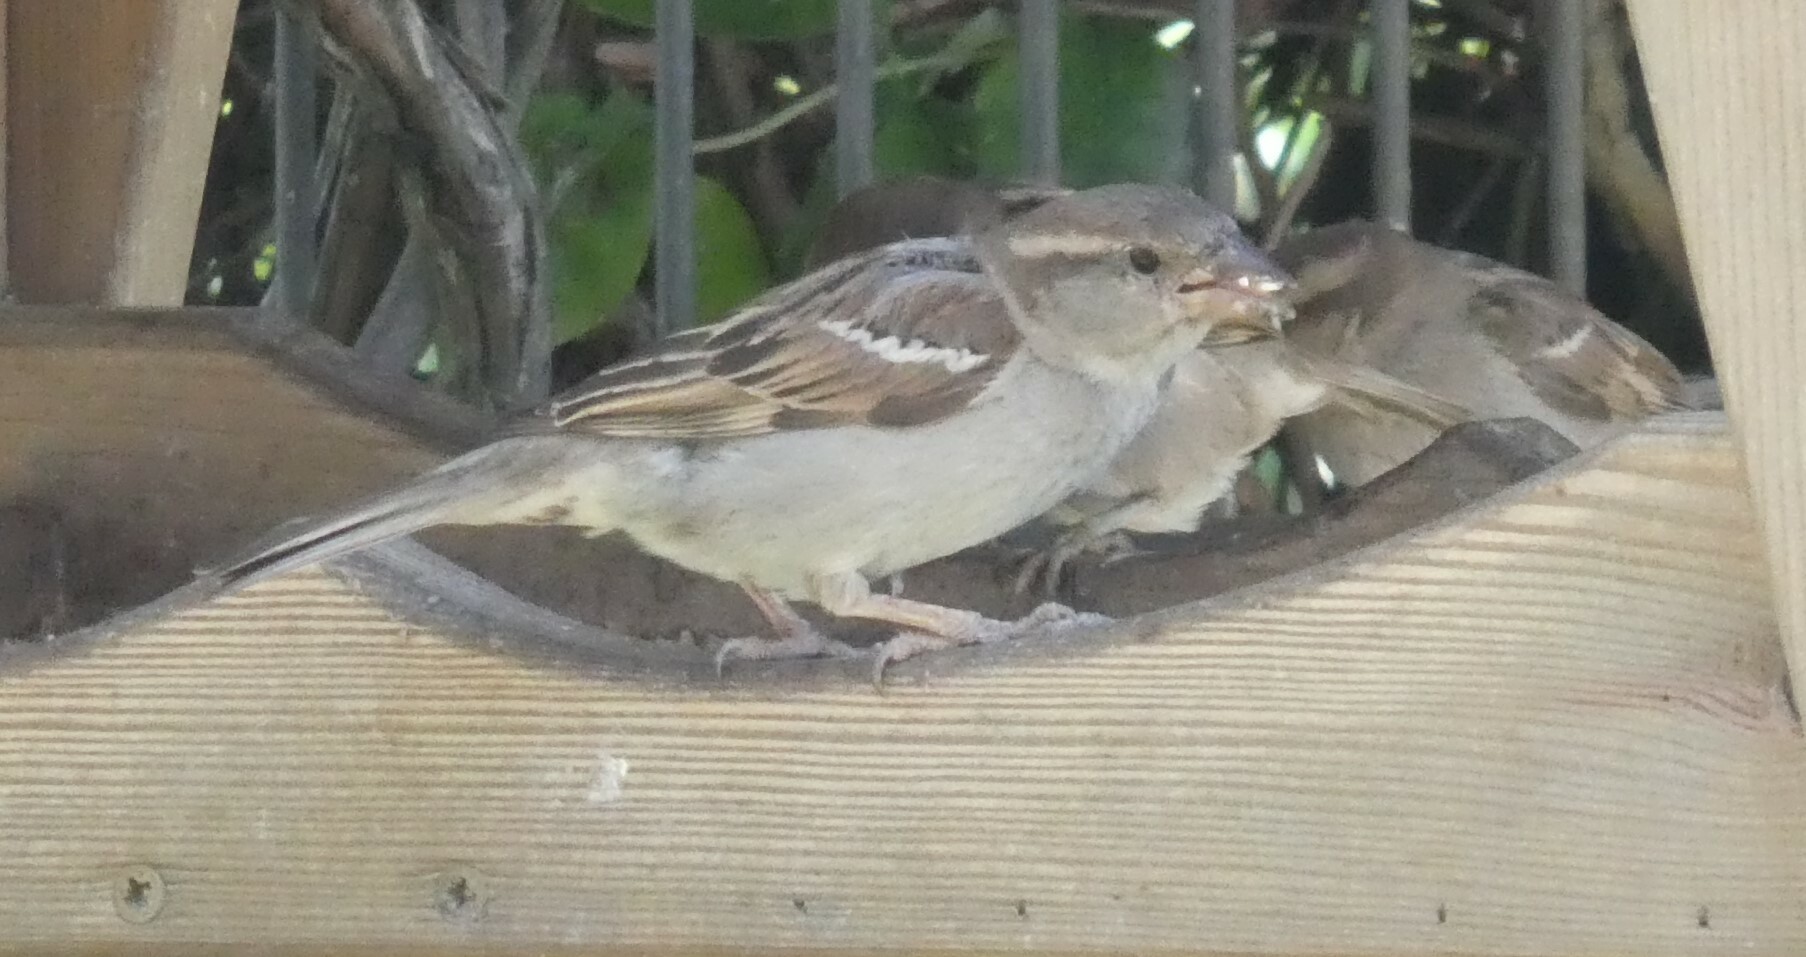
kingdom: Animalia
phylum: Chordata
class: Aves
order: Passeriformes
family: Passeridae
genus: Passer
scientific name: Passer domesticus
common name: House sparrow
